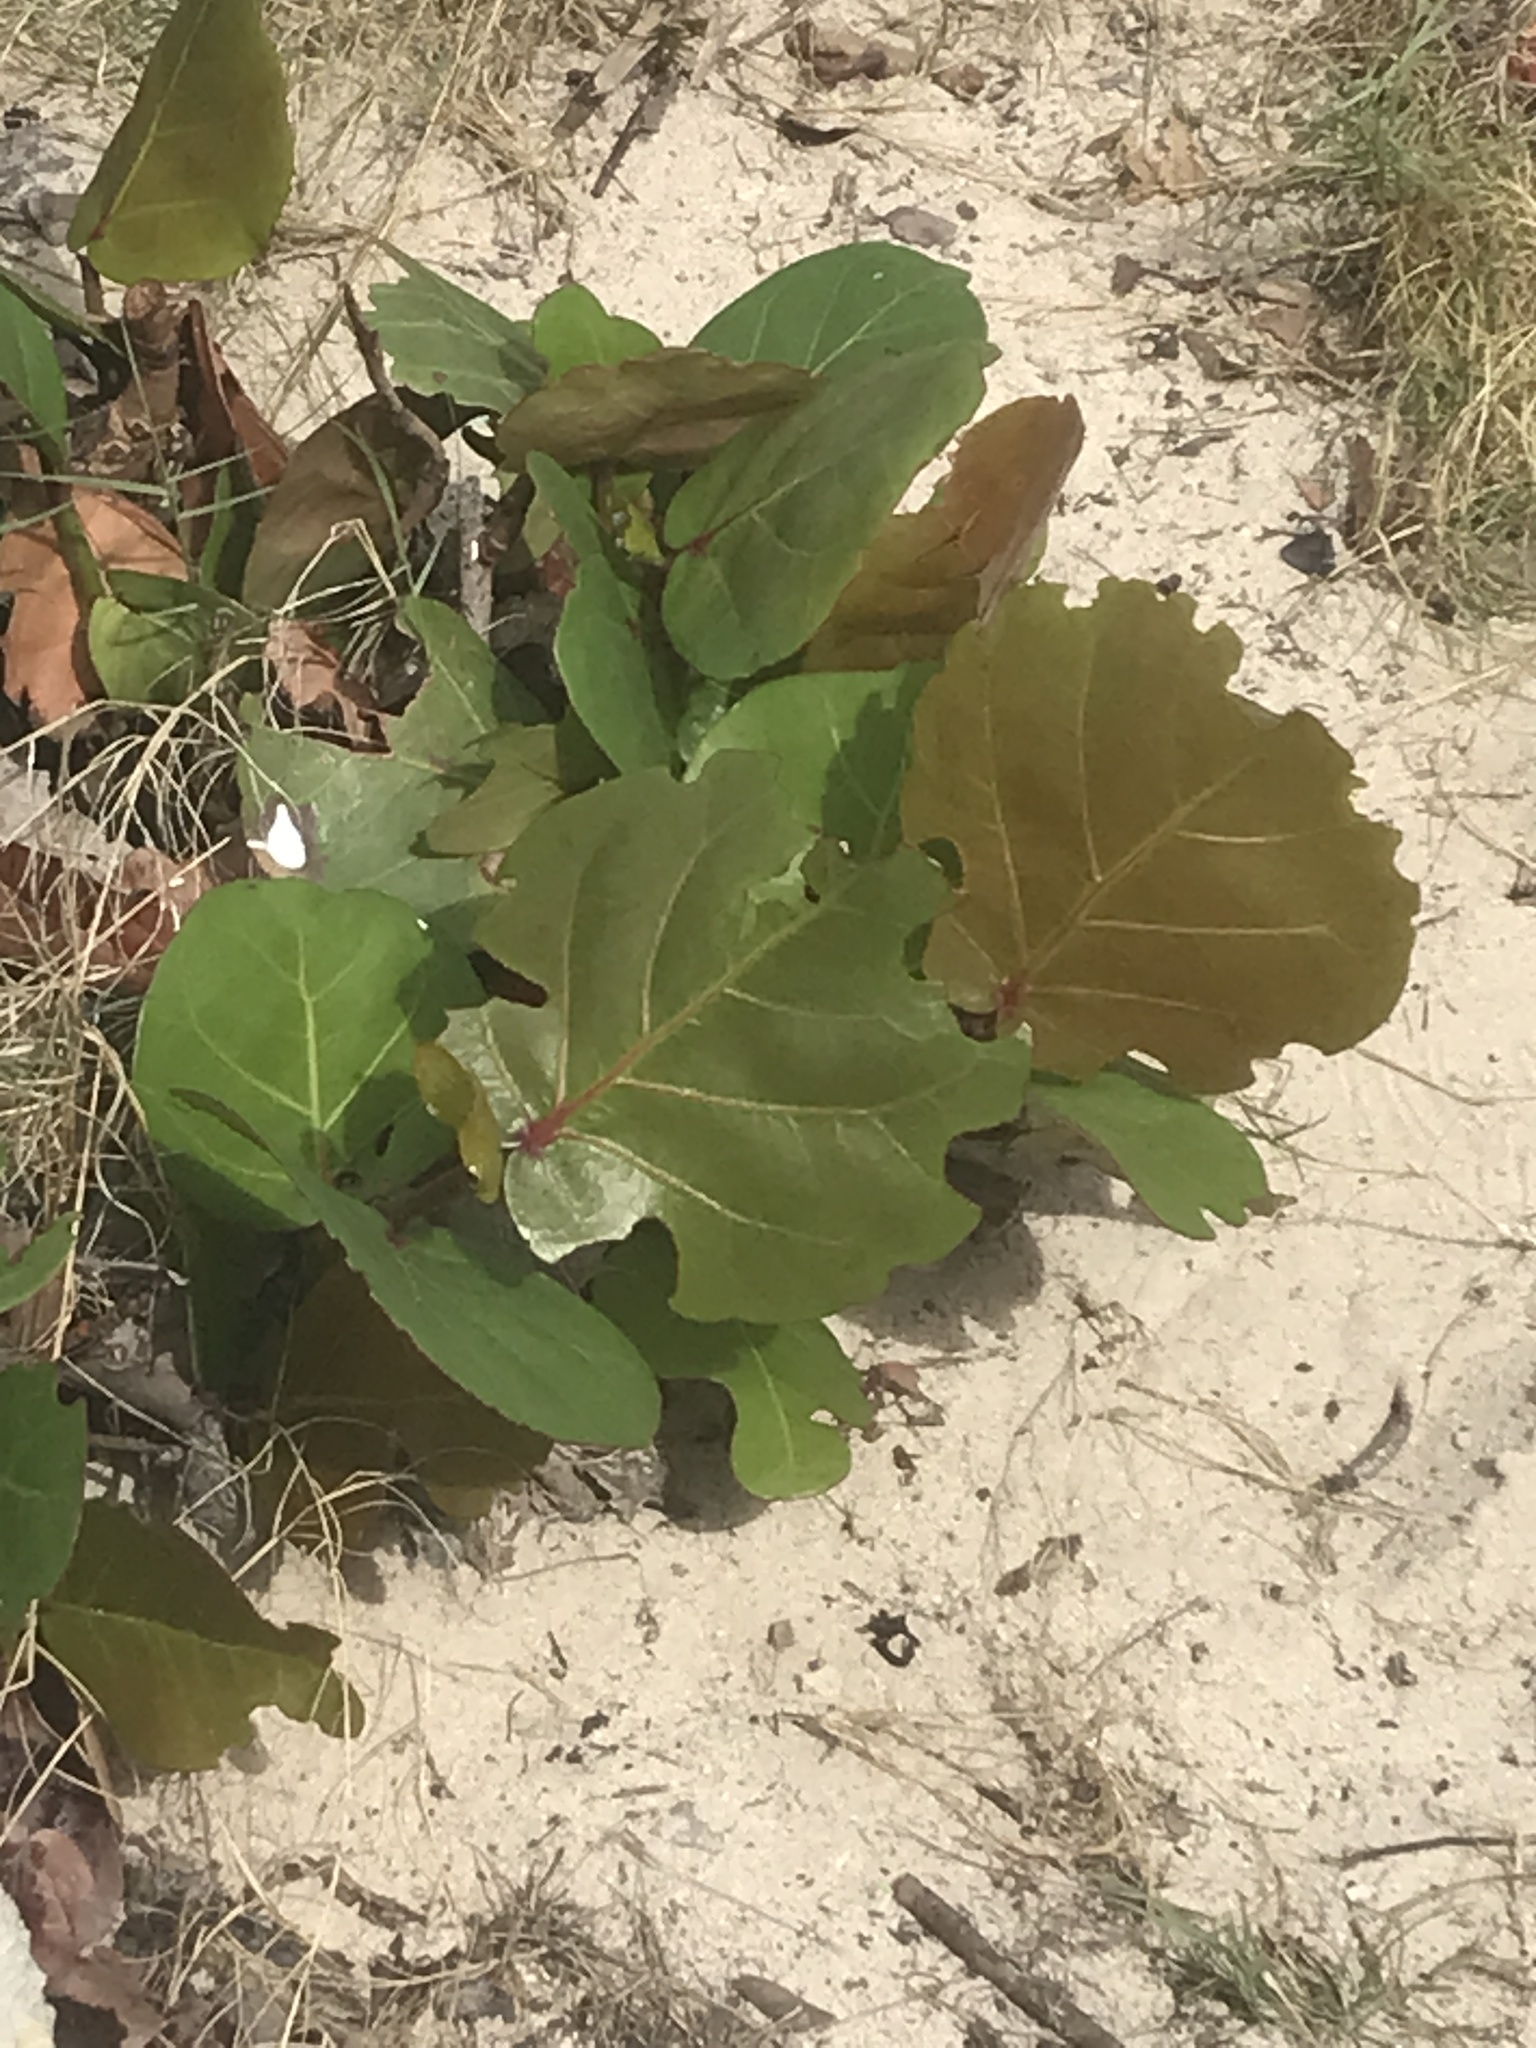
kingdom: Plantae
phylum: Tracheophyta
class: Magnoliopsida
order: Caryophyllales
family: Polygonaceae
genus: Coccoloba
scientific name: Coccoloba uvifera
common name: Seagrape
